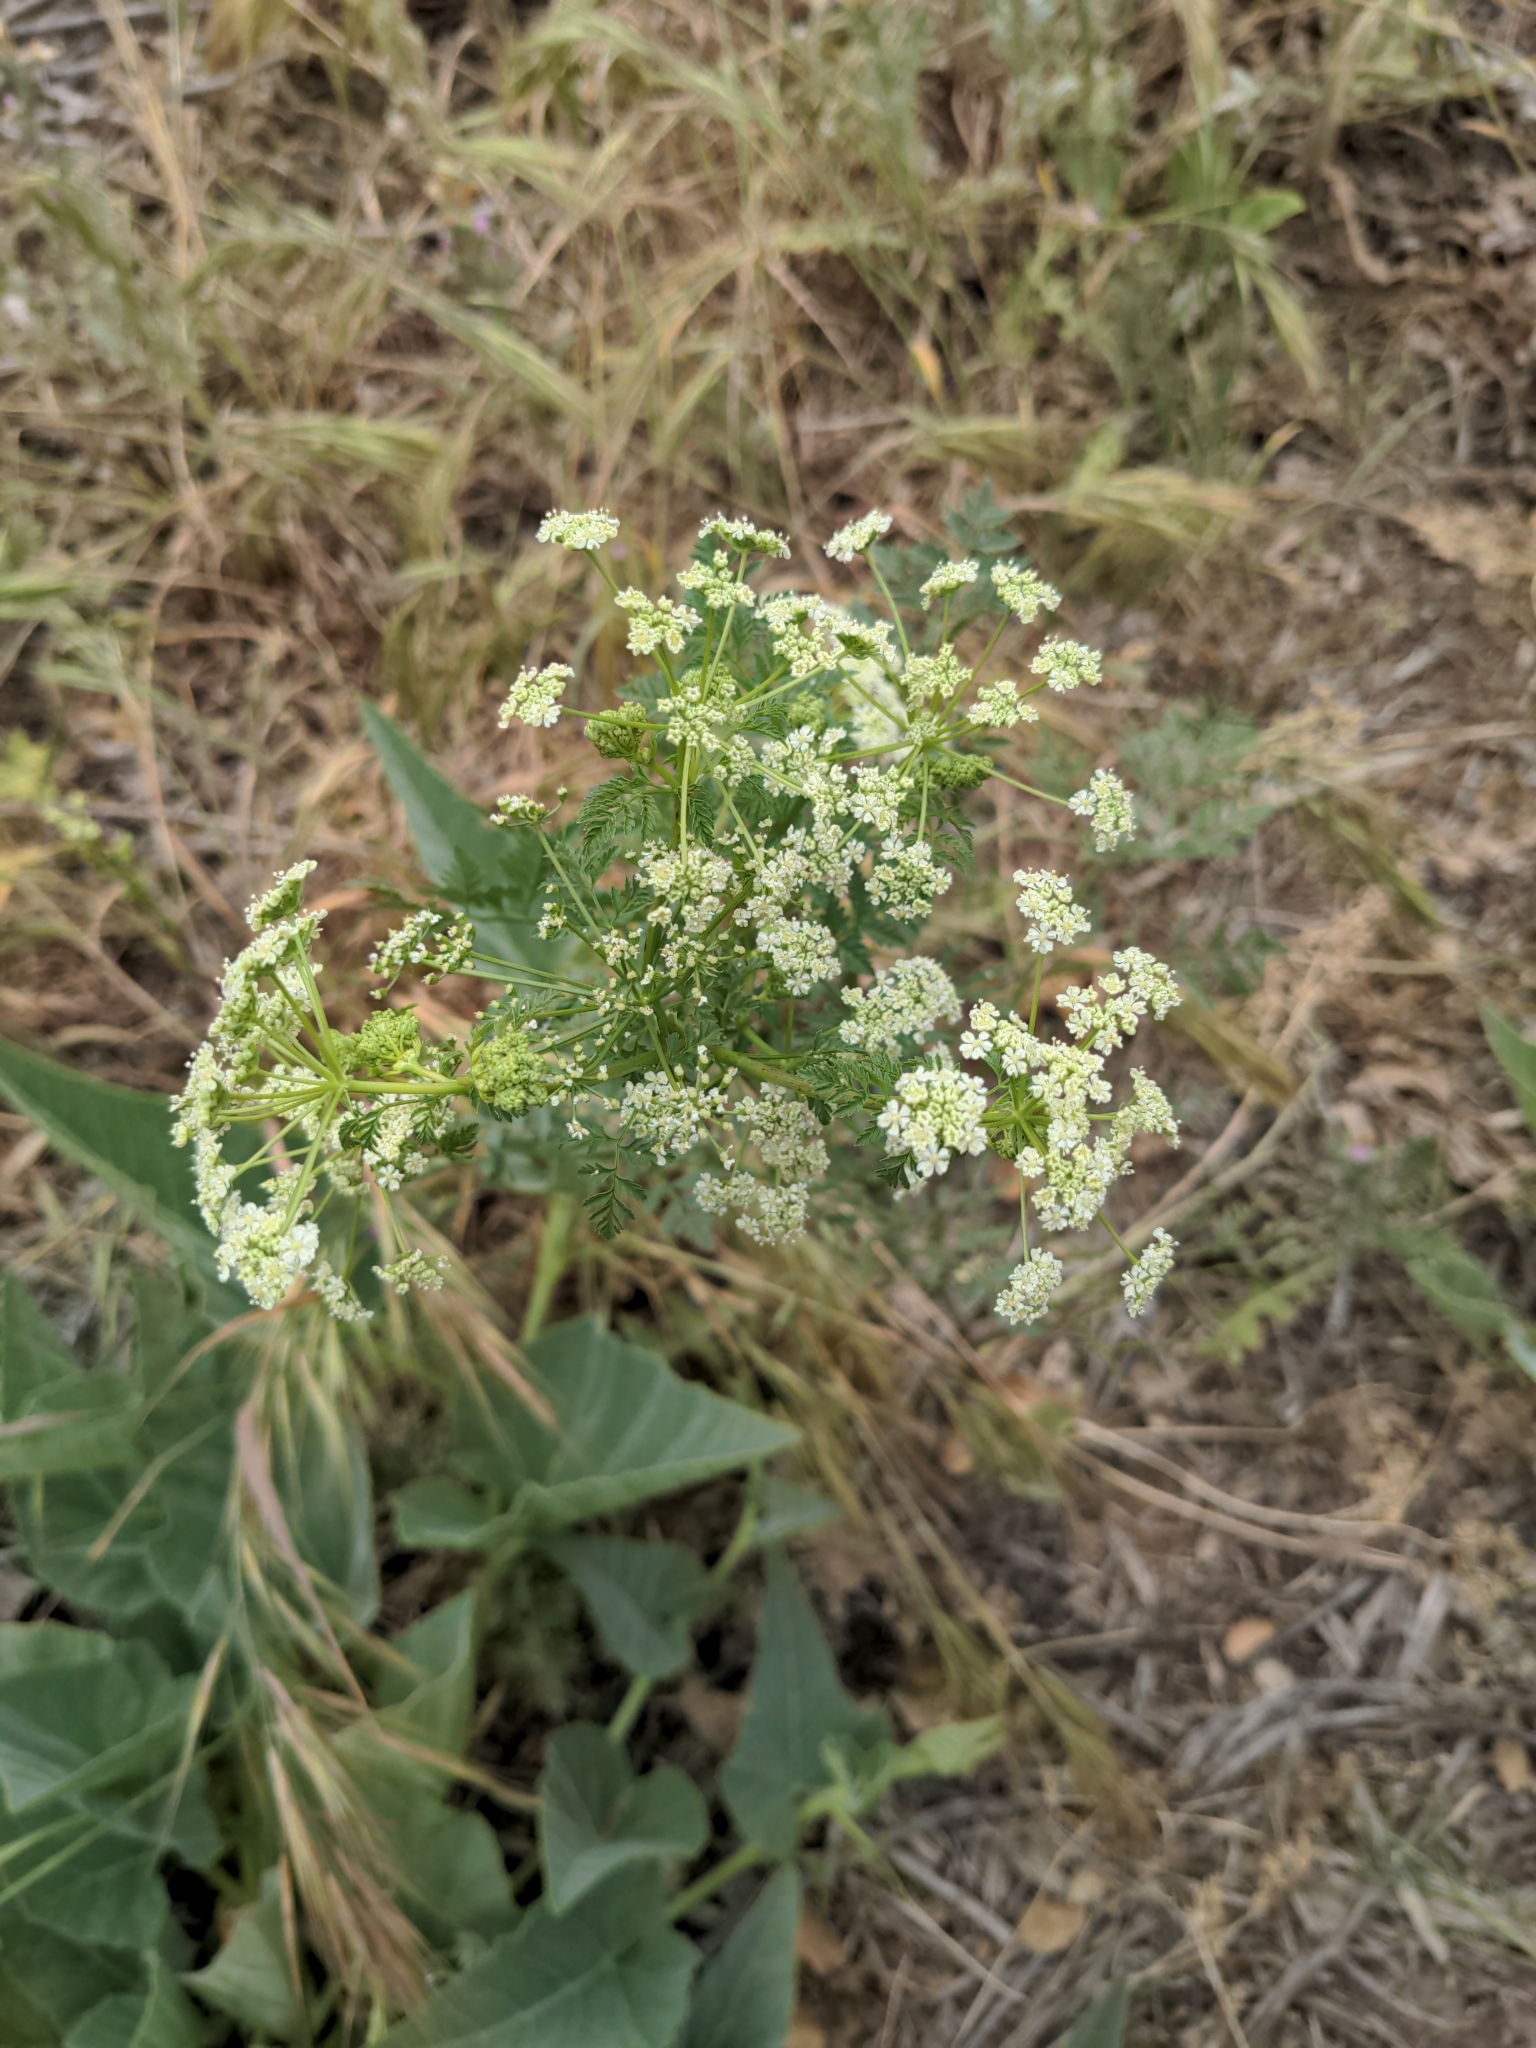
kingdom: Plantae
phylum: Tracheophyta
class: Magnoliopsida
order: Apiales
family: Apiaceae
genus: Conium
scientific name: Conium maculatum
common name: Hemlock
